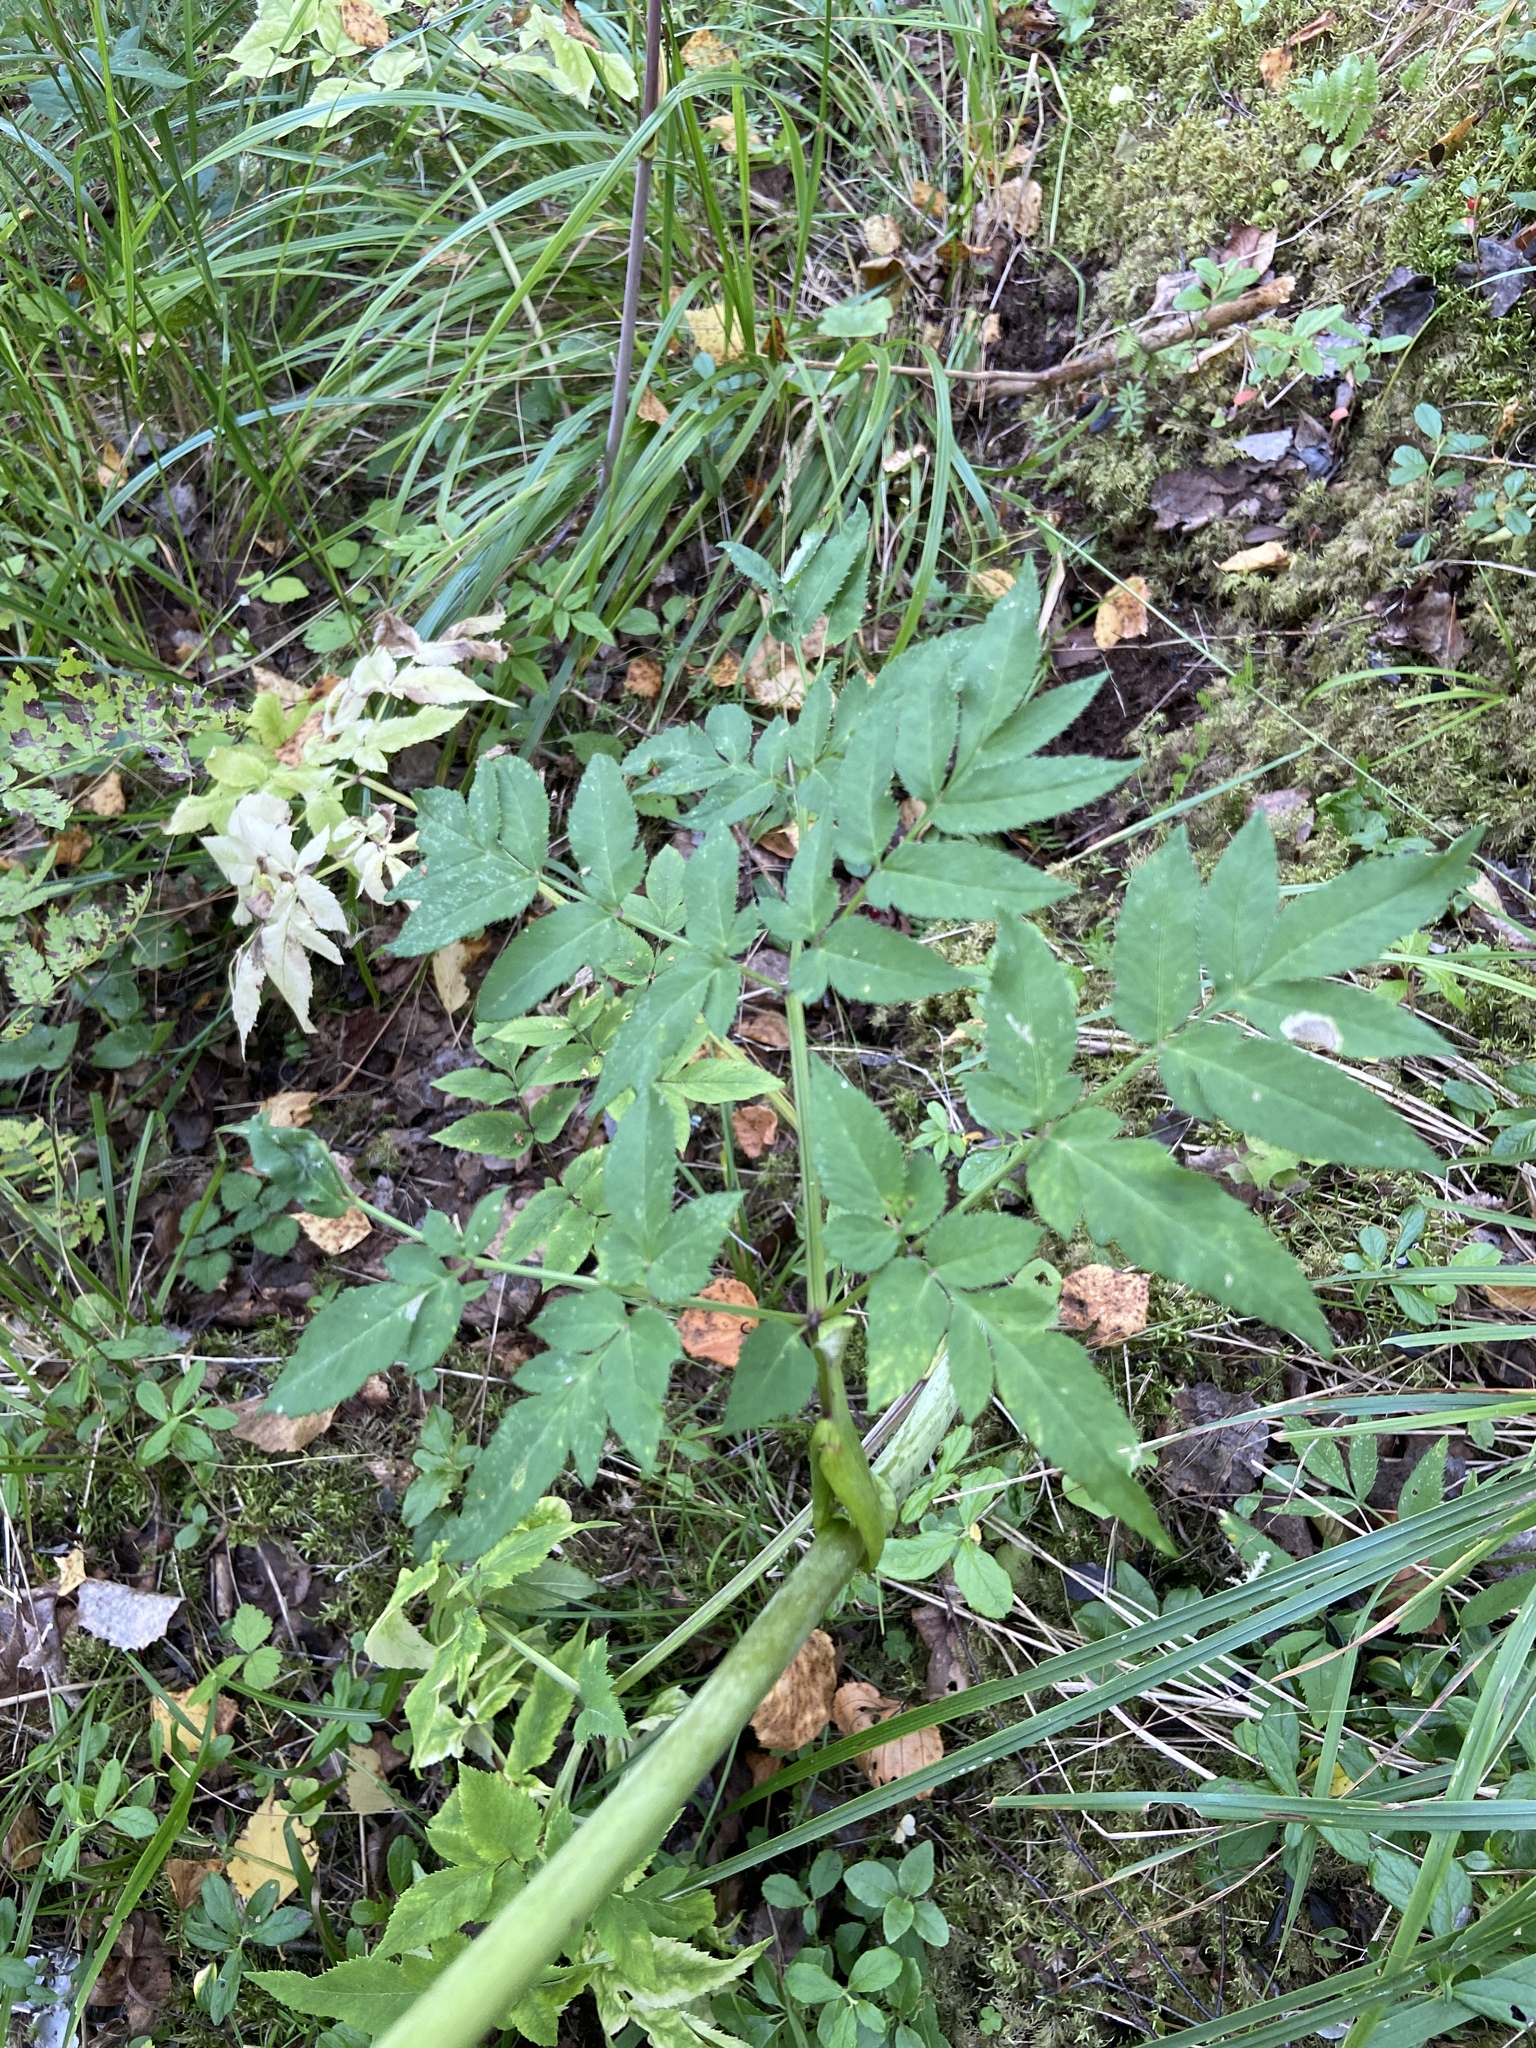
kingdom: Plantae
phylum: Tracheophyta
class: Magnoliopsida
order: Apiales
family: Apiaceae
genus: Angelica
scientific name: Angelica sylvestris
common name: Wild angelica
